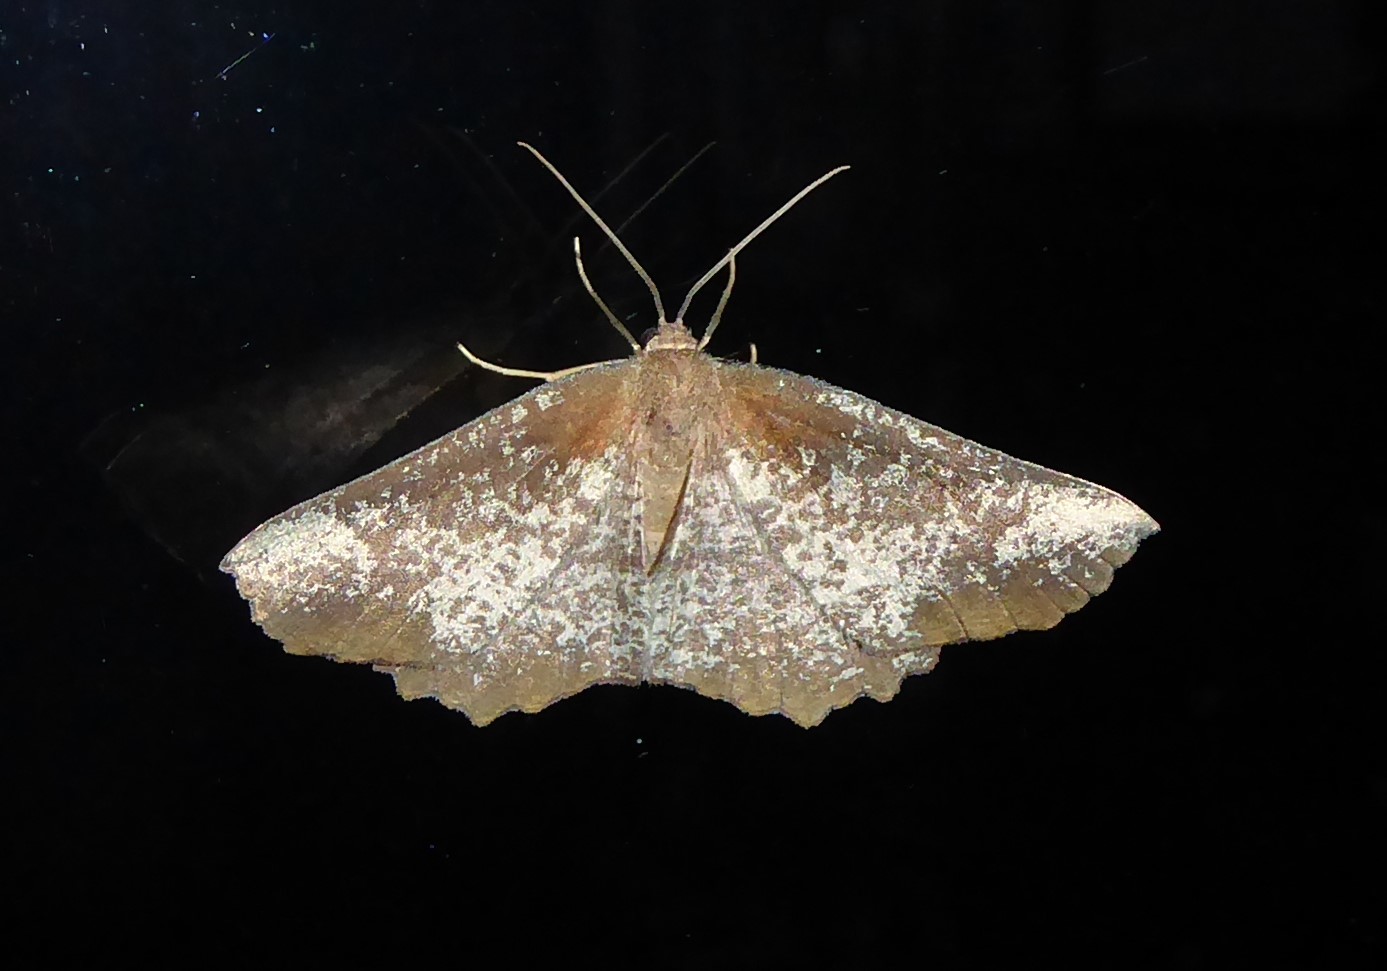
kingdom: Animalia
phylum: Arthropoda
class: Insecta
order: Lepidoptera
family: Geometridae
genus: Xyridacma
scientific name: Xyridacma ustaria
